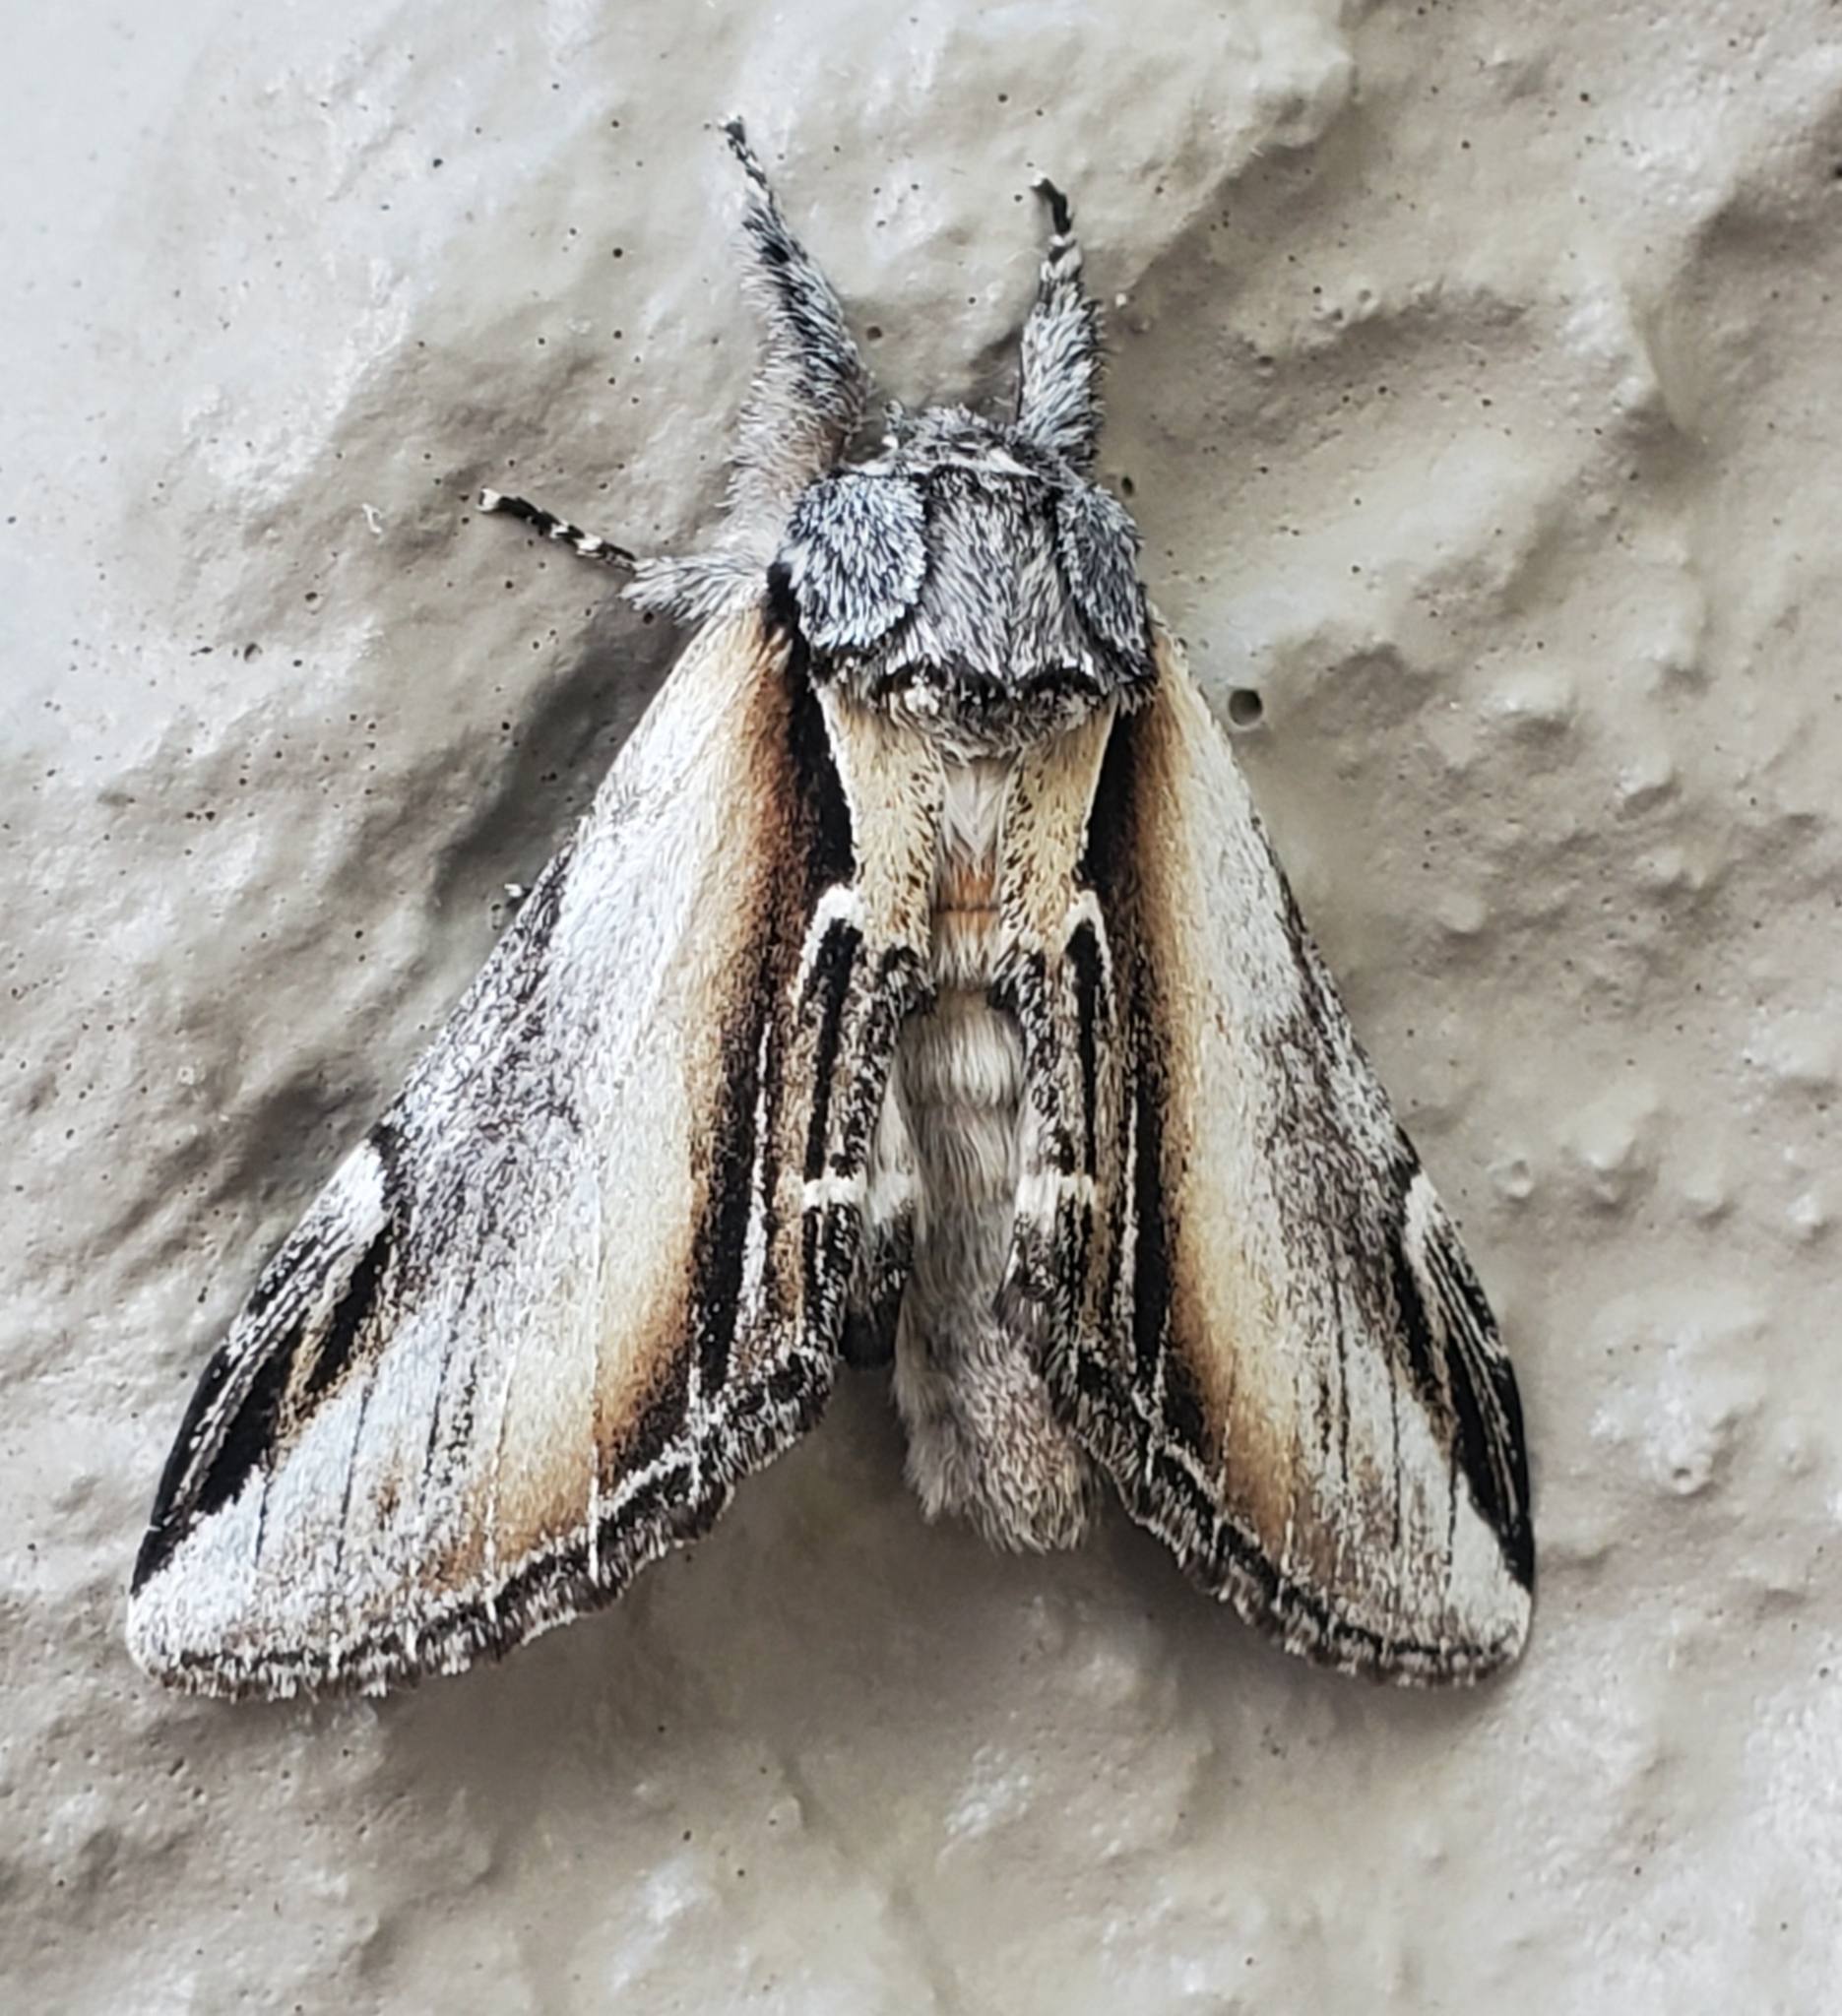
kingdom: Animalia
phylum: Arthropoda
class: Insecta
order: Lepidoptera
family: Notodontidae
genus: Pheosia
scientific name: Pheosia rimosa
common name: Black-rimmed prominent
